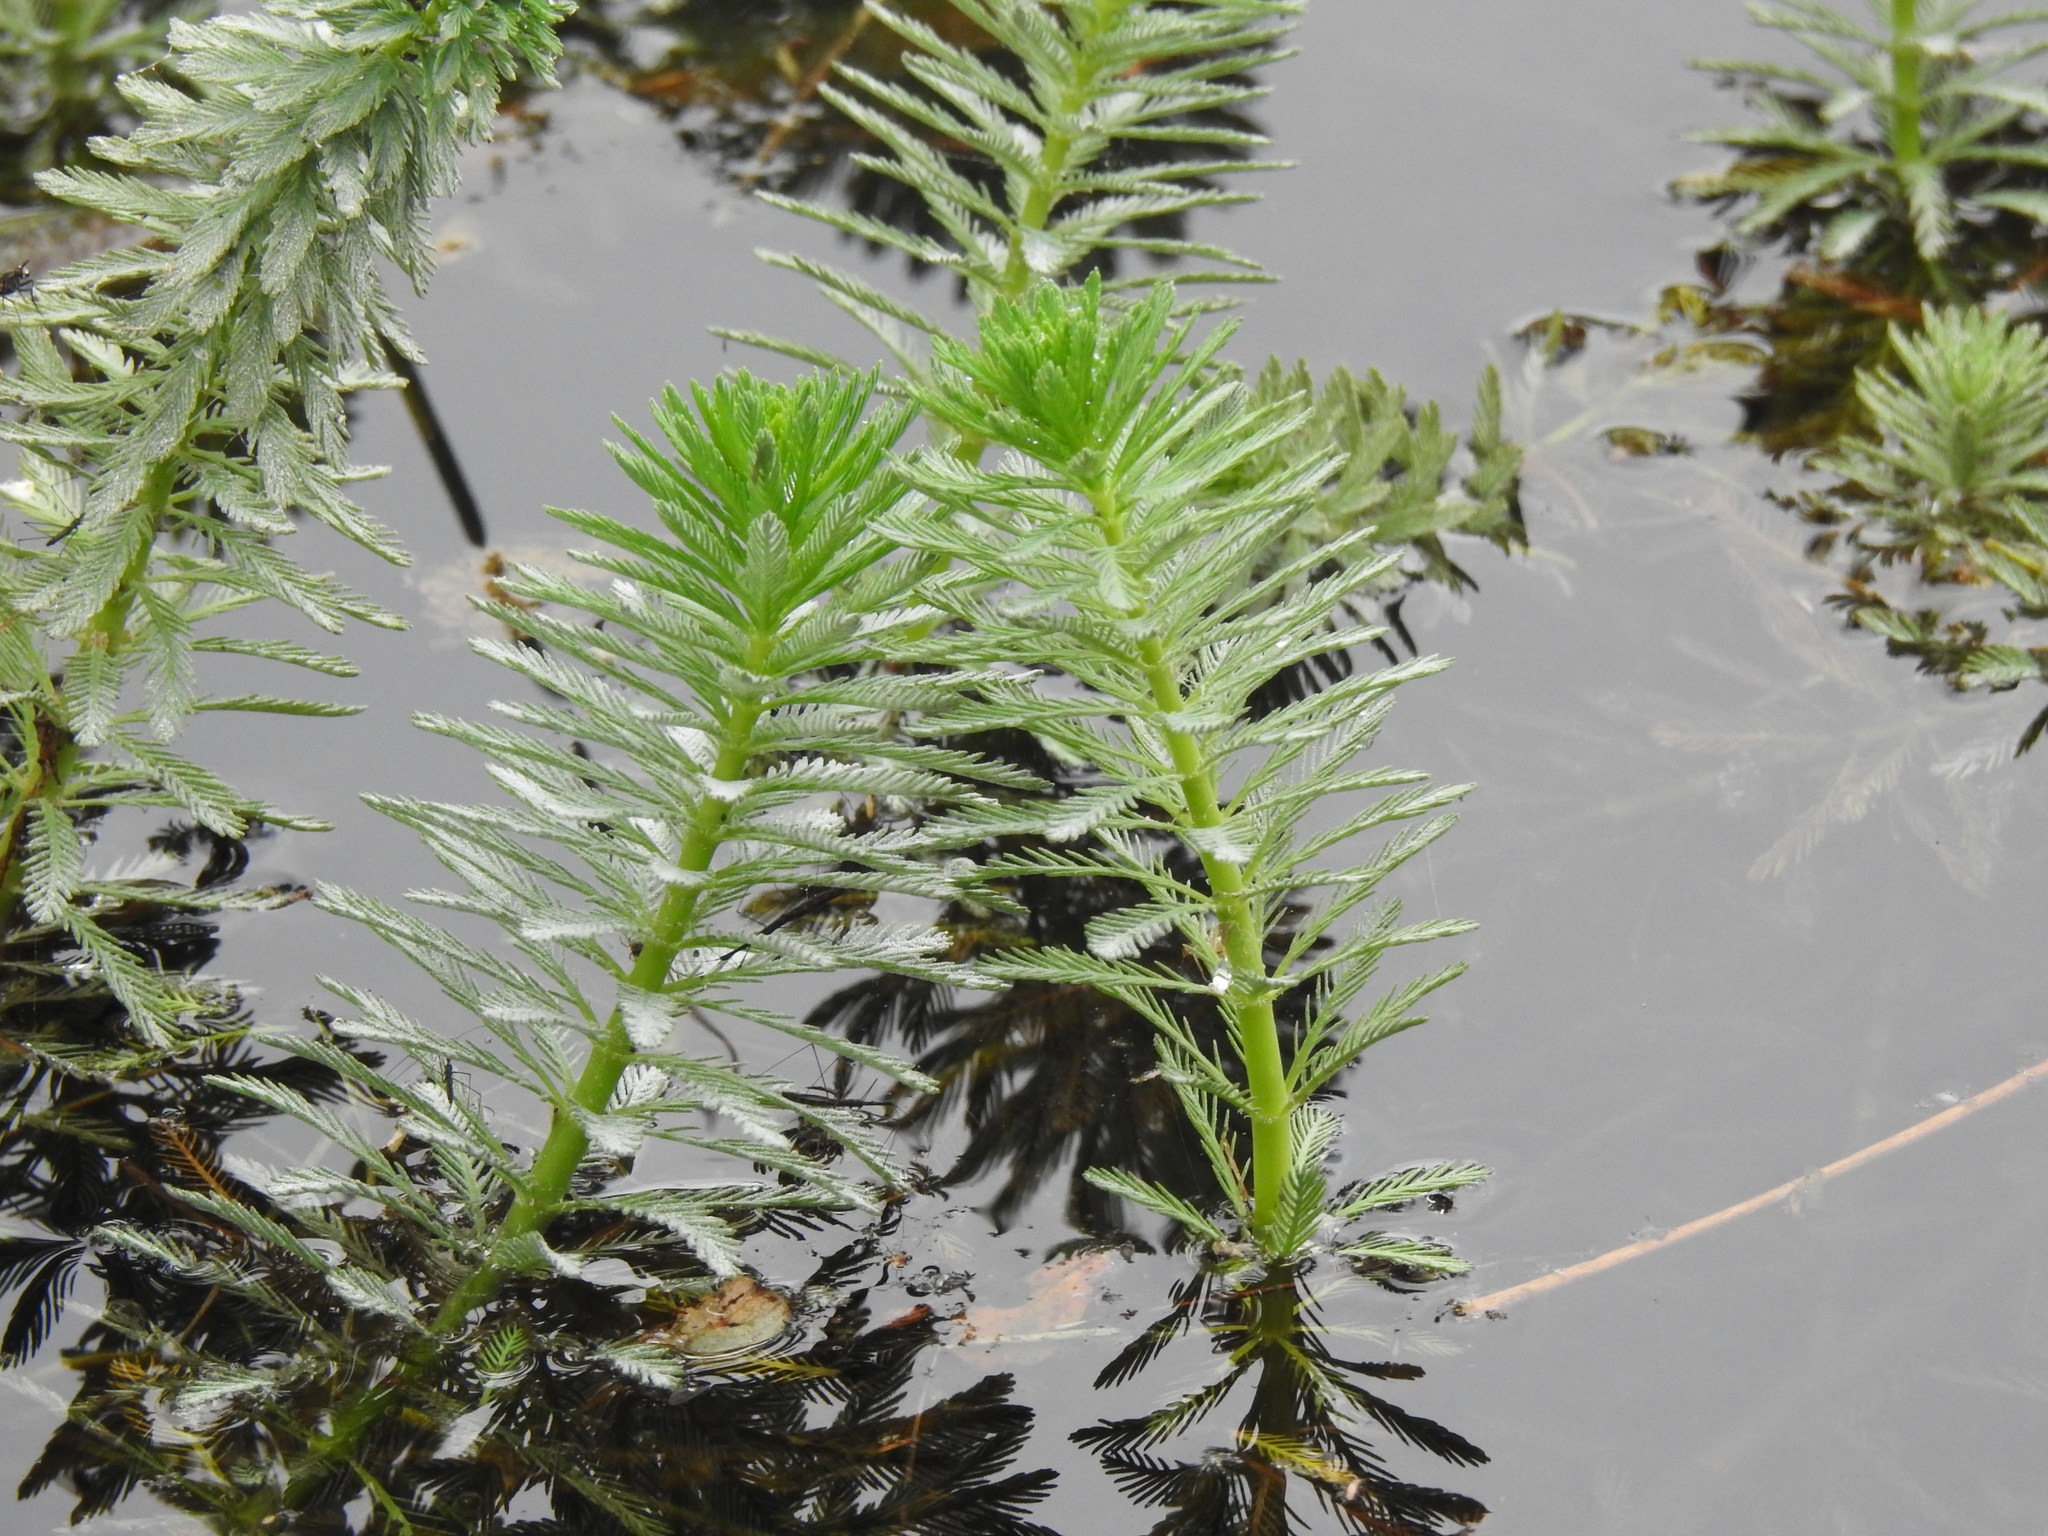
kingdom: Plantae
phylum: Tracheophyta
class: Magnoliopsida
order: Saxifragales
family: Haloragaceae
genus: Myriophyllum
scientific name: Myriophyllum aquaticum
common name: Parrot's feather
